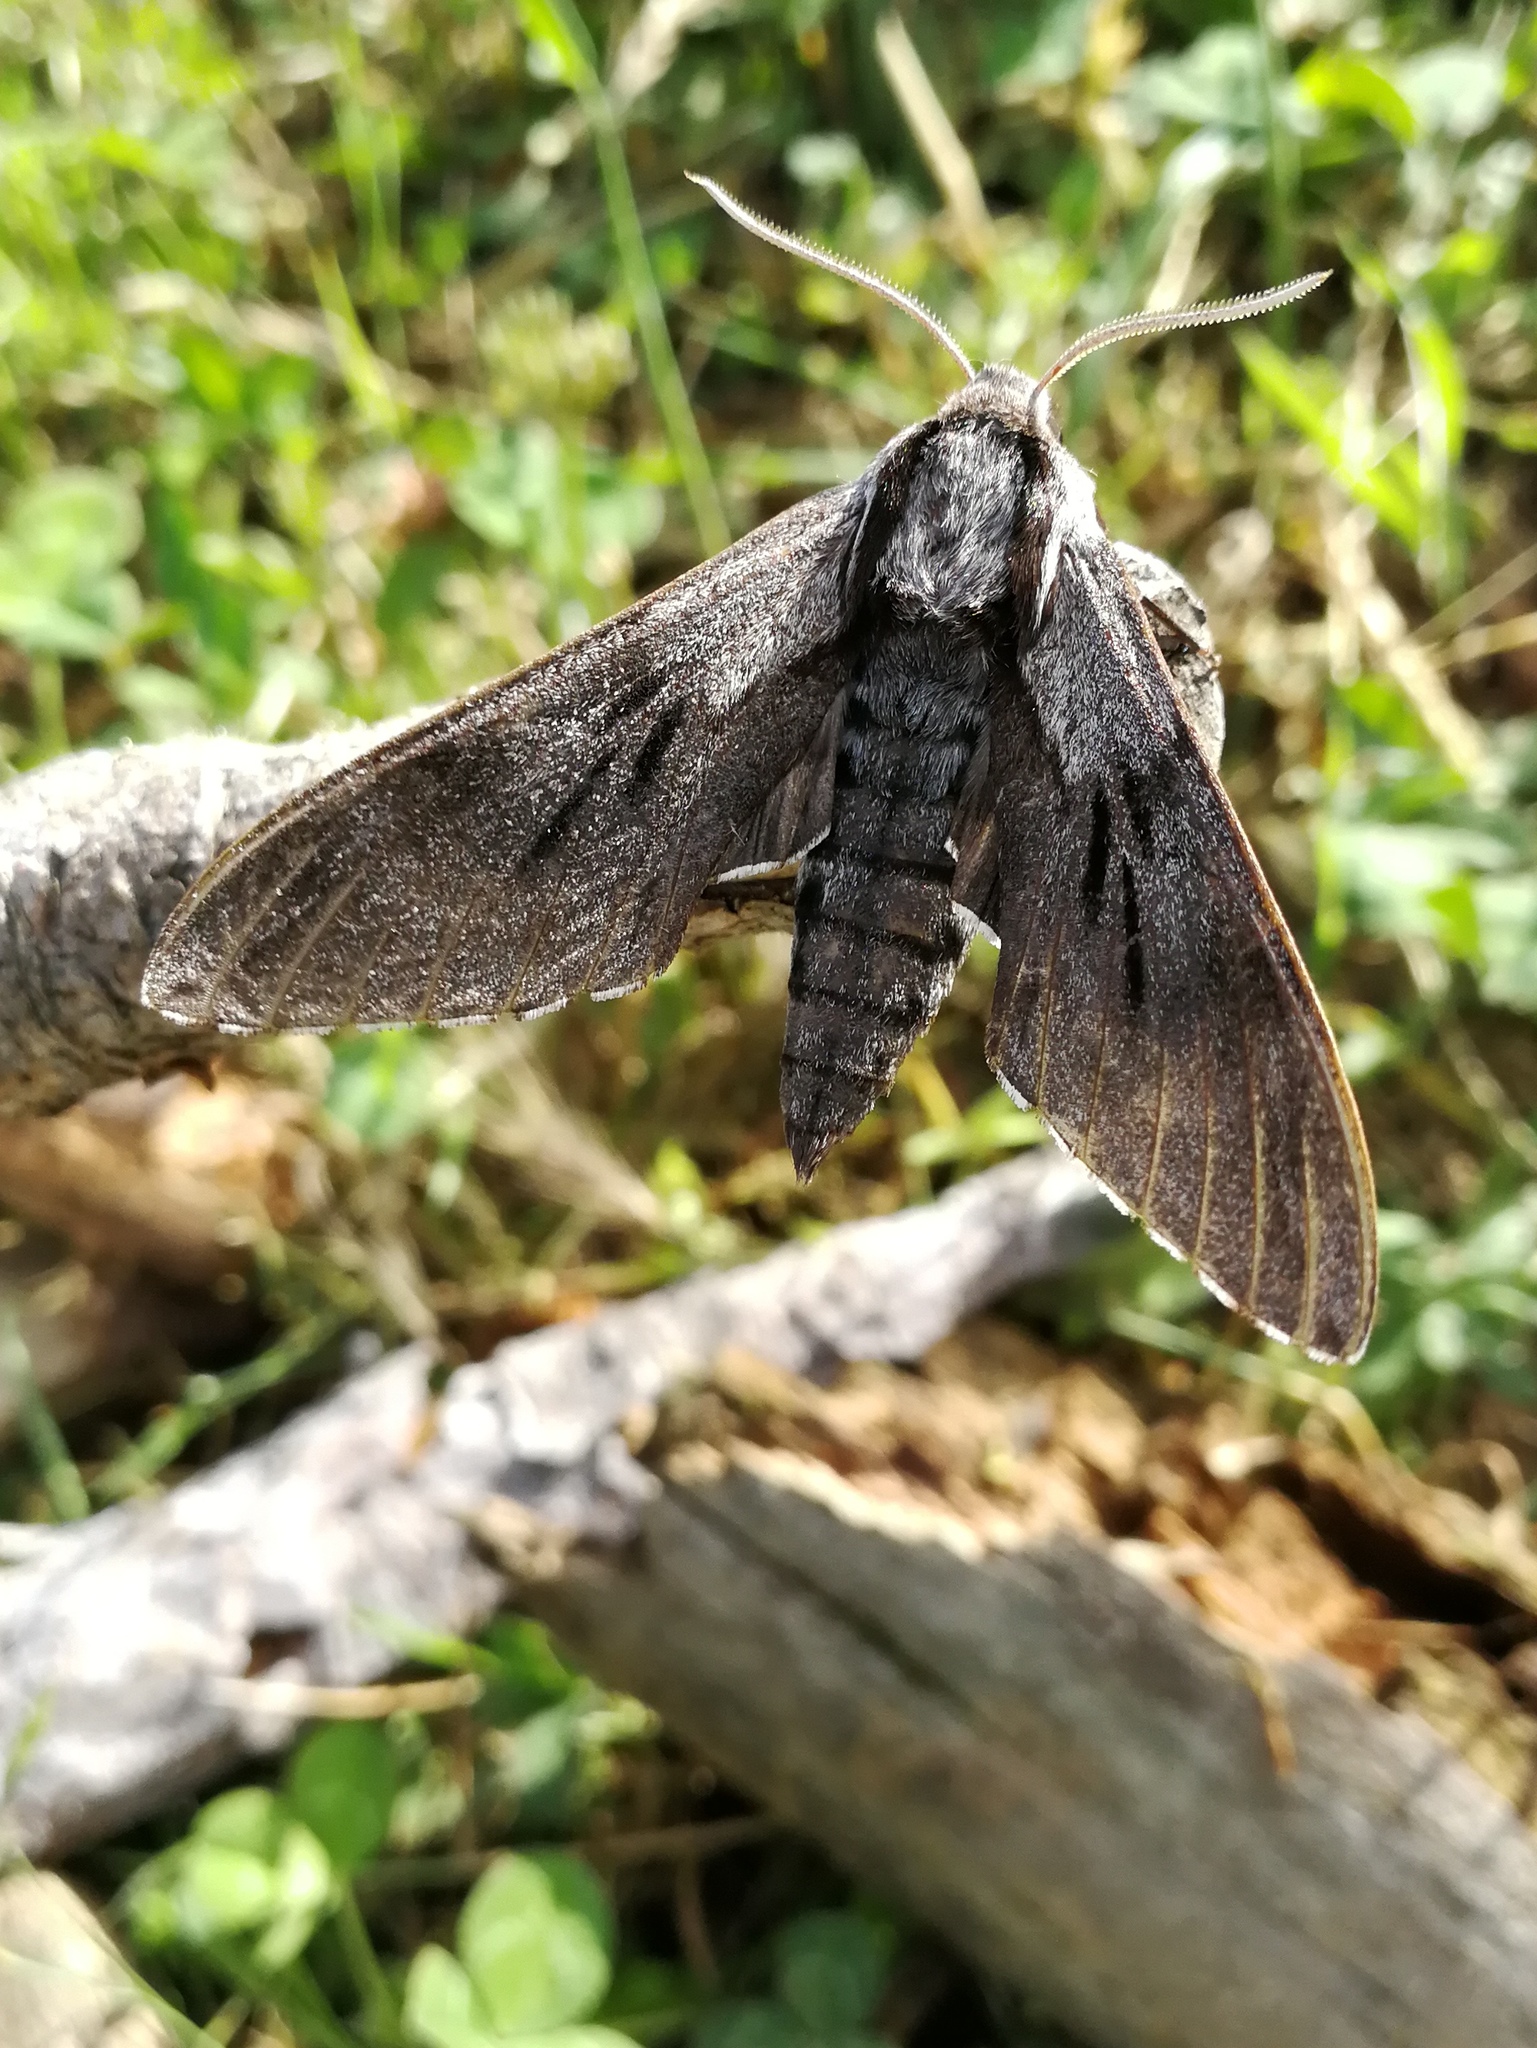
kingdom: Animalia
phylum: Arthropoda
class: Insecta
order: Lepidoptera
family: Sphingidae
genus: Sphinx
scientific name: Sphinx maurorum
